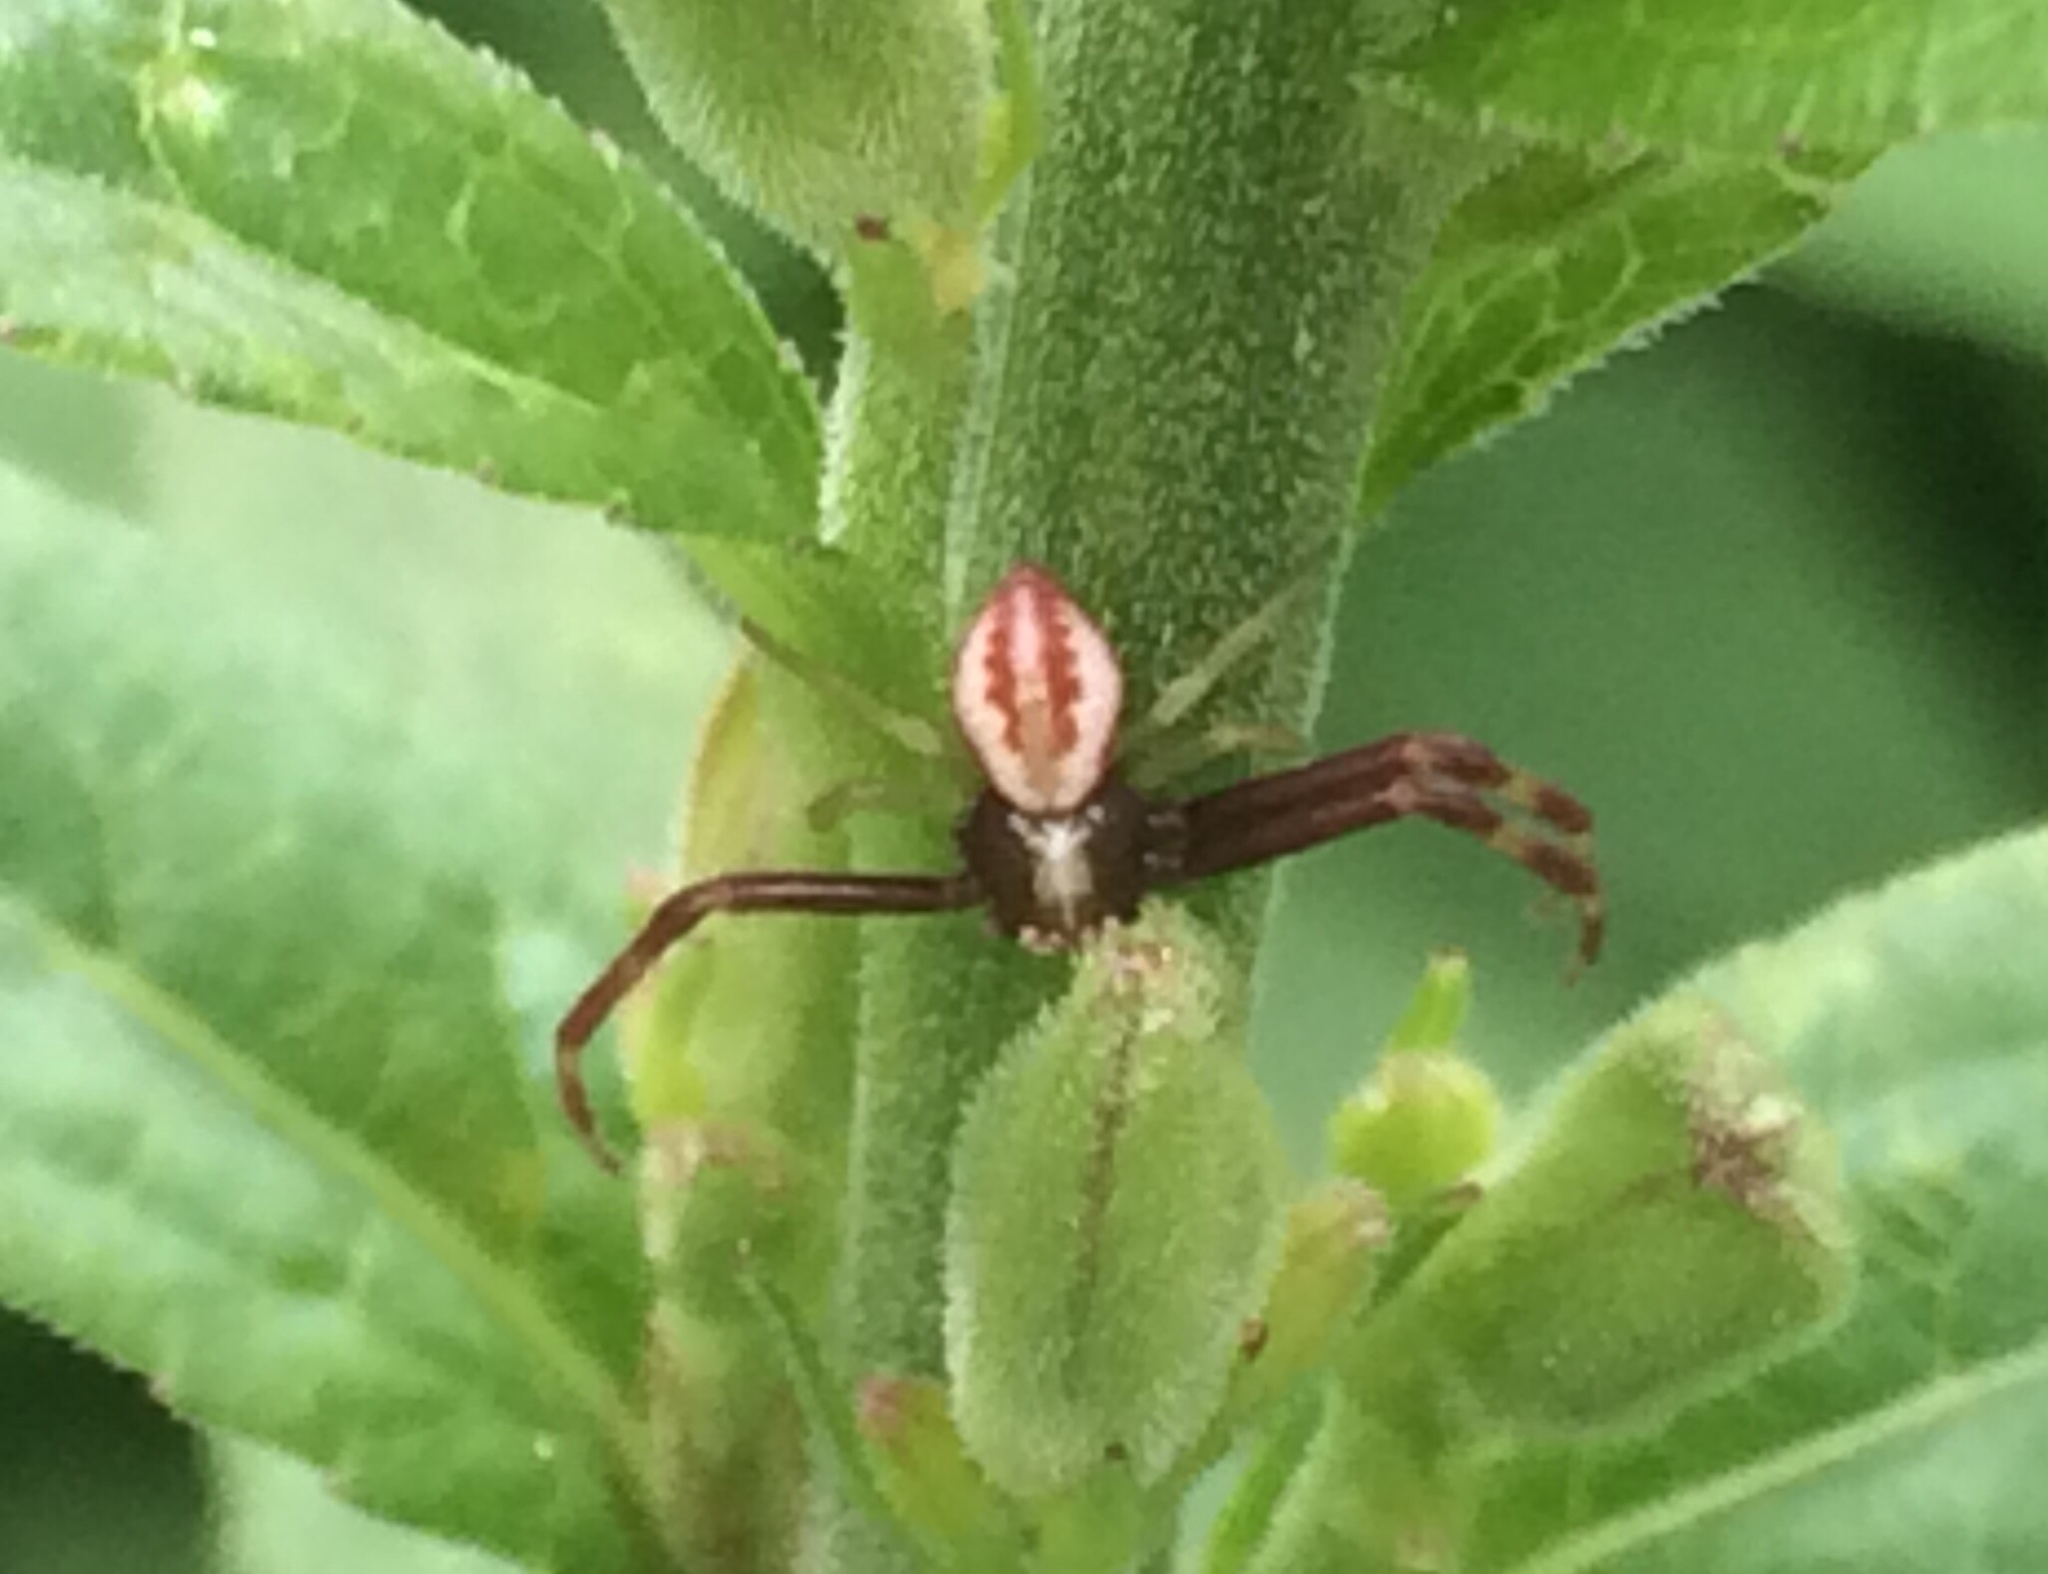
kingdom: Animalia
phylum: Arthropoda
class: Arachnida
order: Araneae
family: Thomisidae
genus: Misumena
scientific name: Misumena vatia
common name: Goldenrod crab spider
